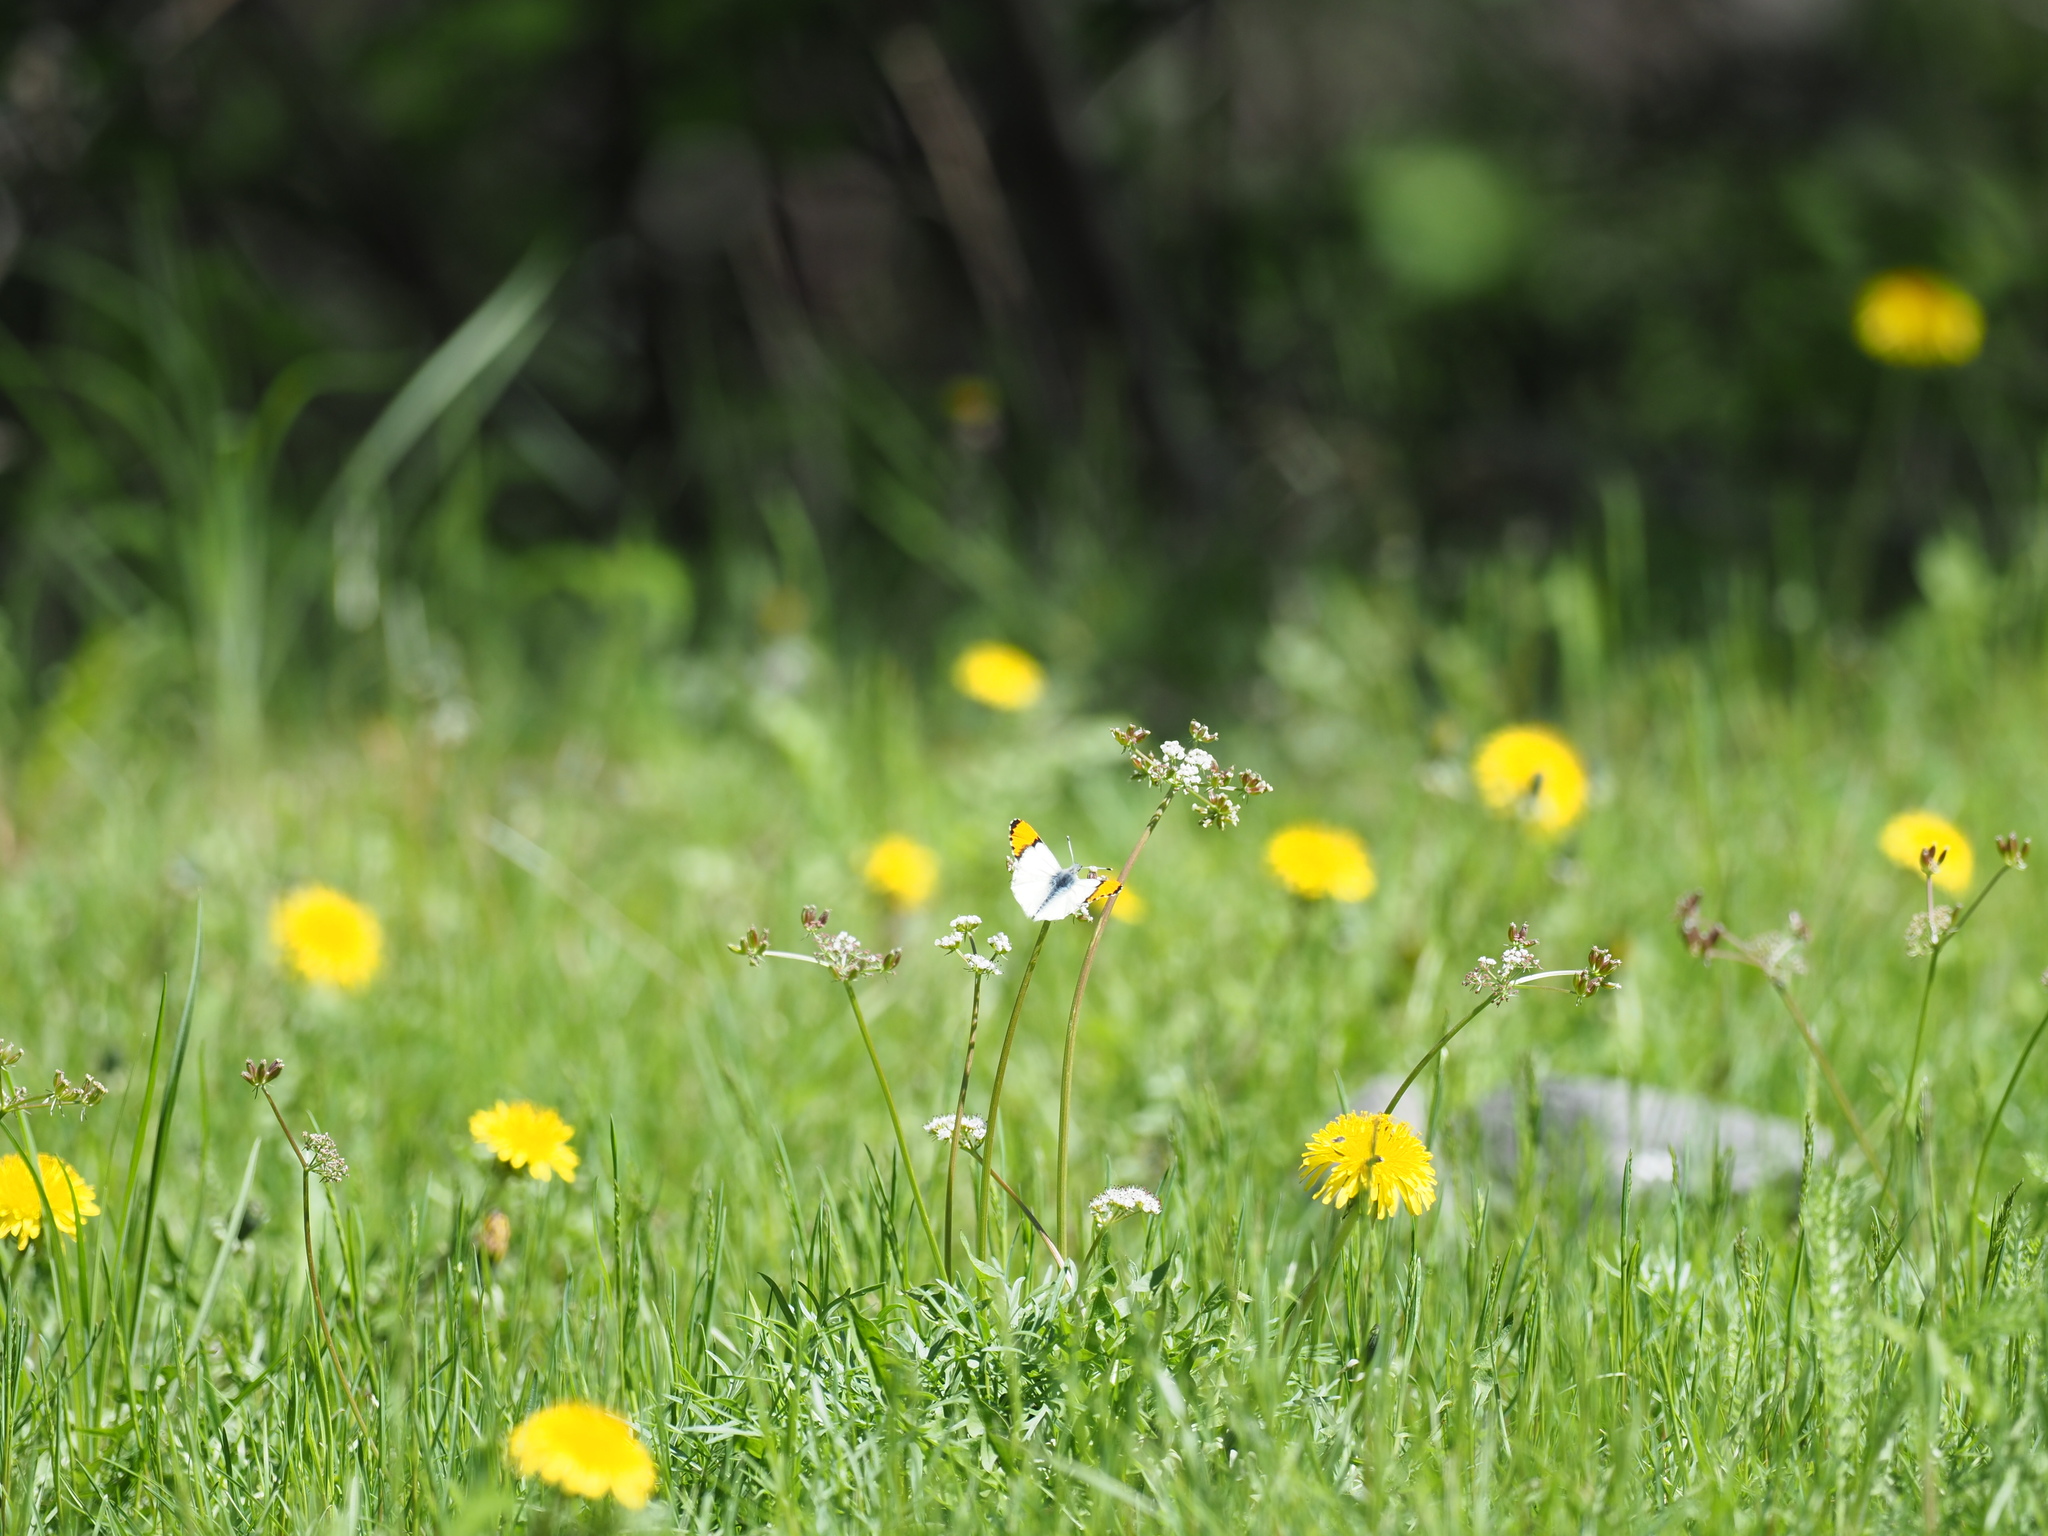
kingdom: Animalia
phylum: Arthropoda
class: Insecta
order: Lepidoptera
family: Pieridae
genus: Anthocharis
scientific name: Anthocharis julia
